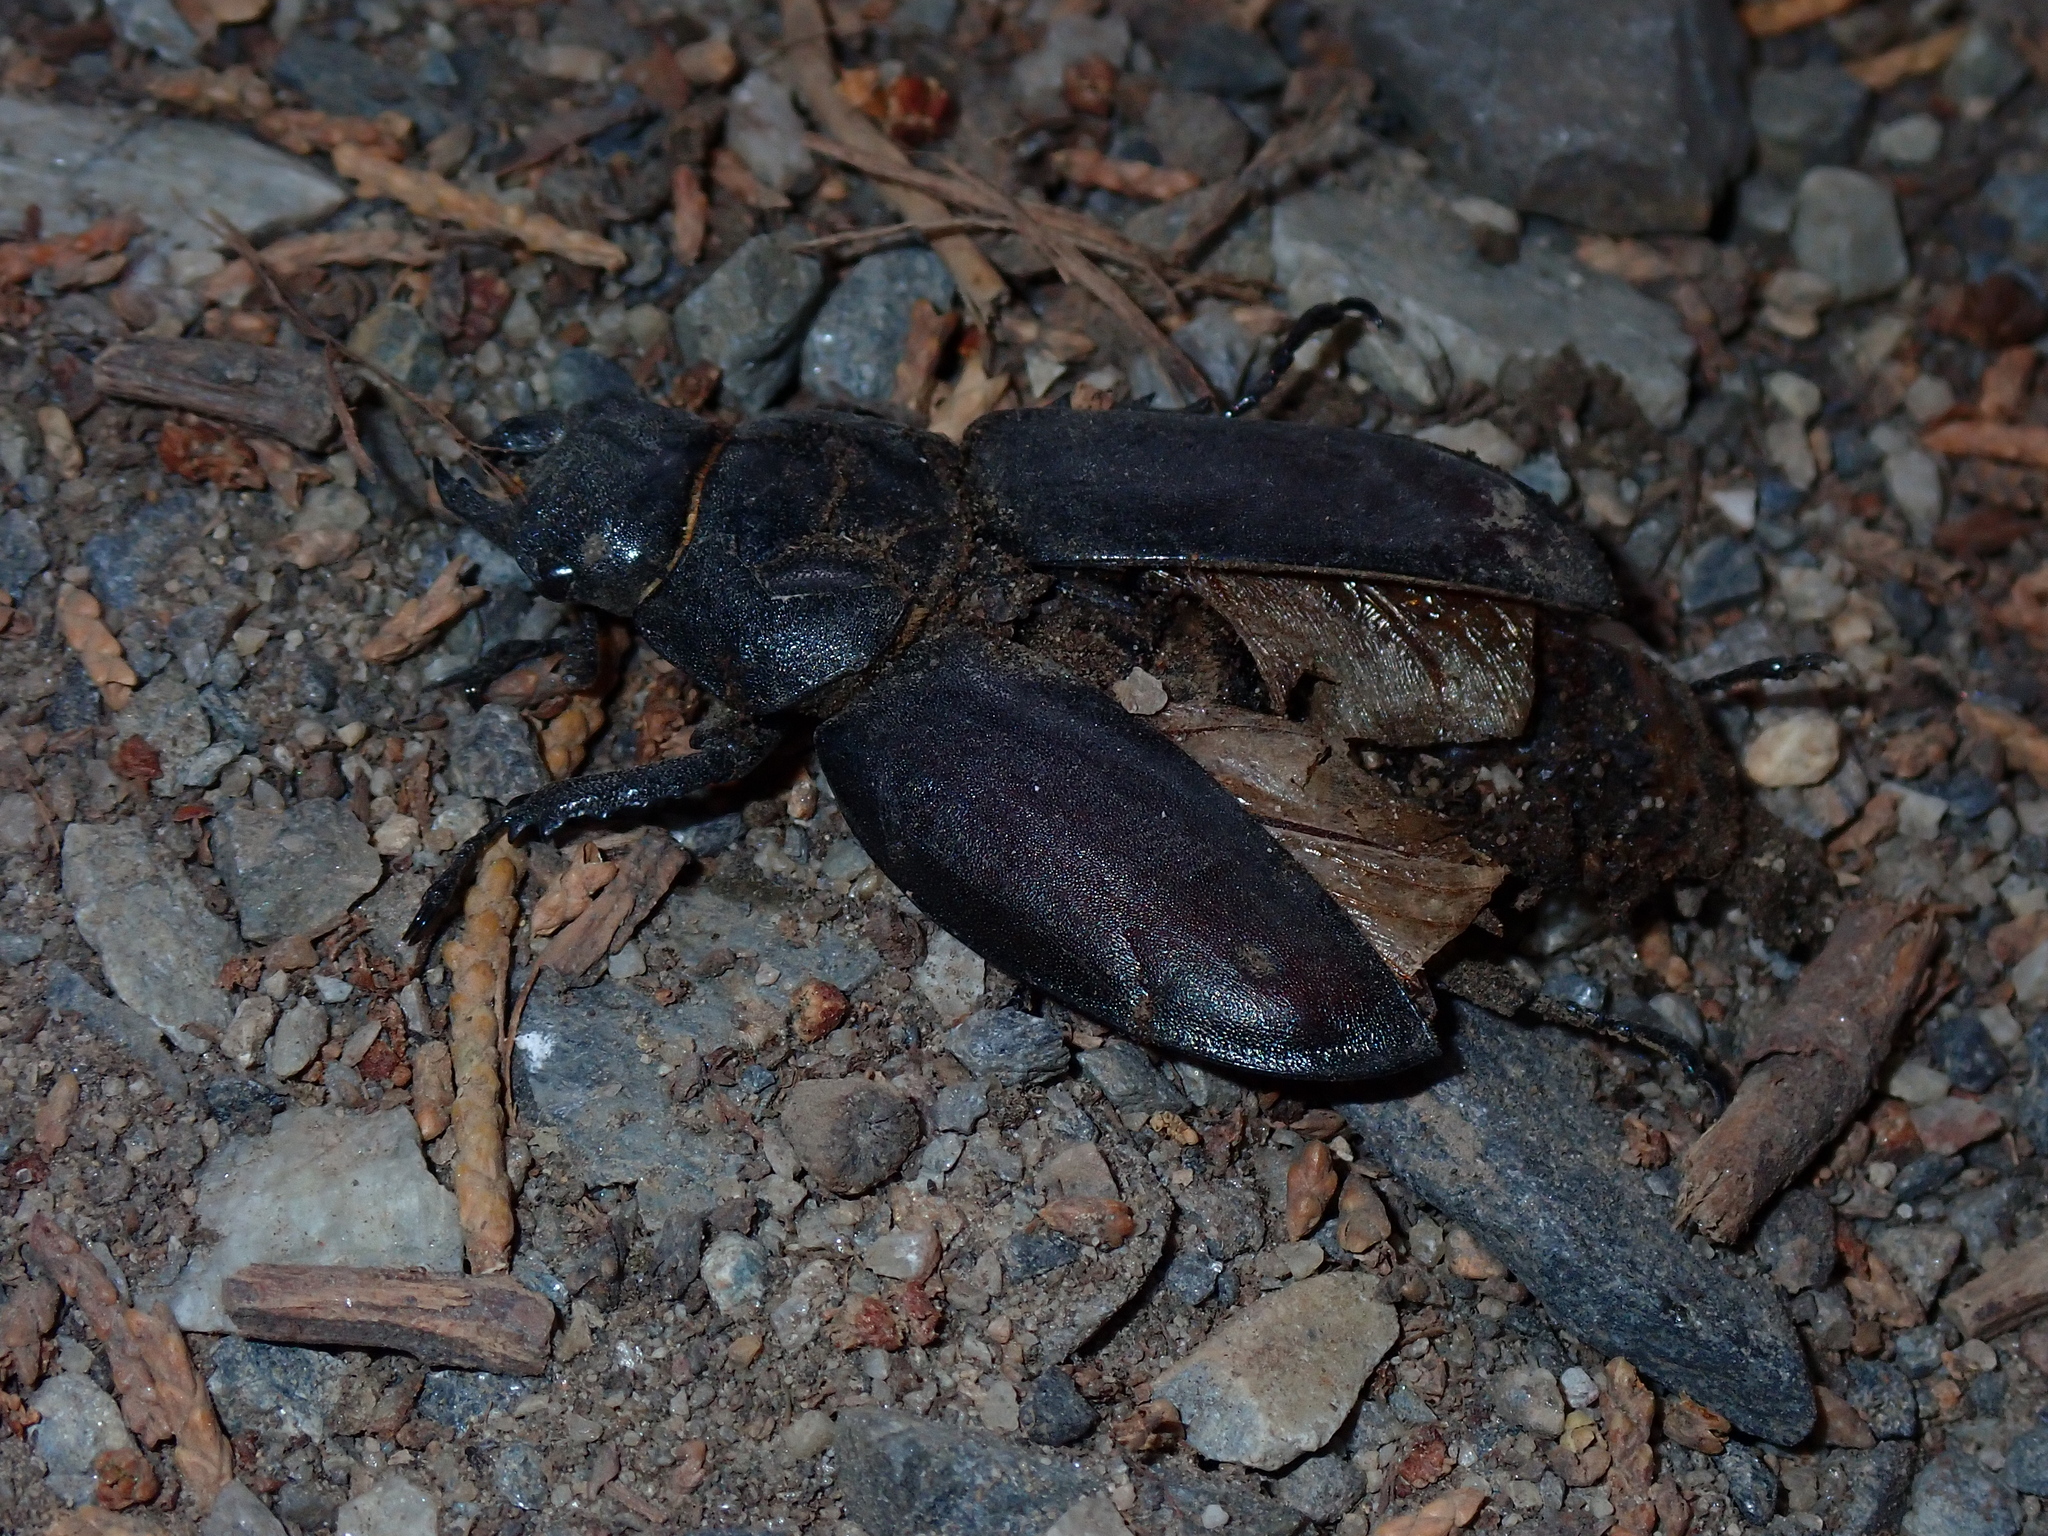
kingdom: Animalia
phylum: Arthropoda
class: Insecta
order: Coleoptera
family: Lucanidae
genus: Lucanus
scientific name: Lucanus cervus
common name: Stag beetle
